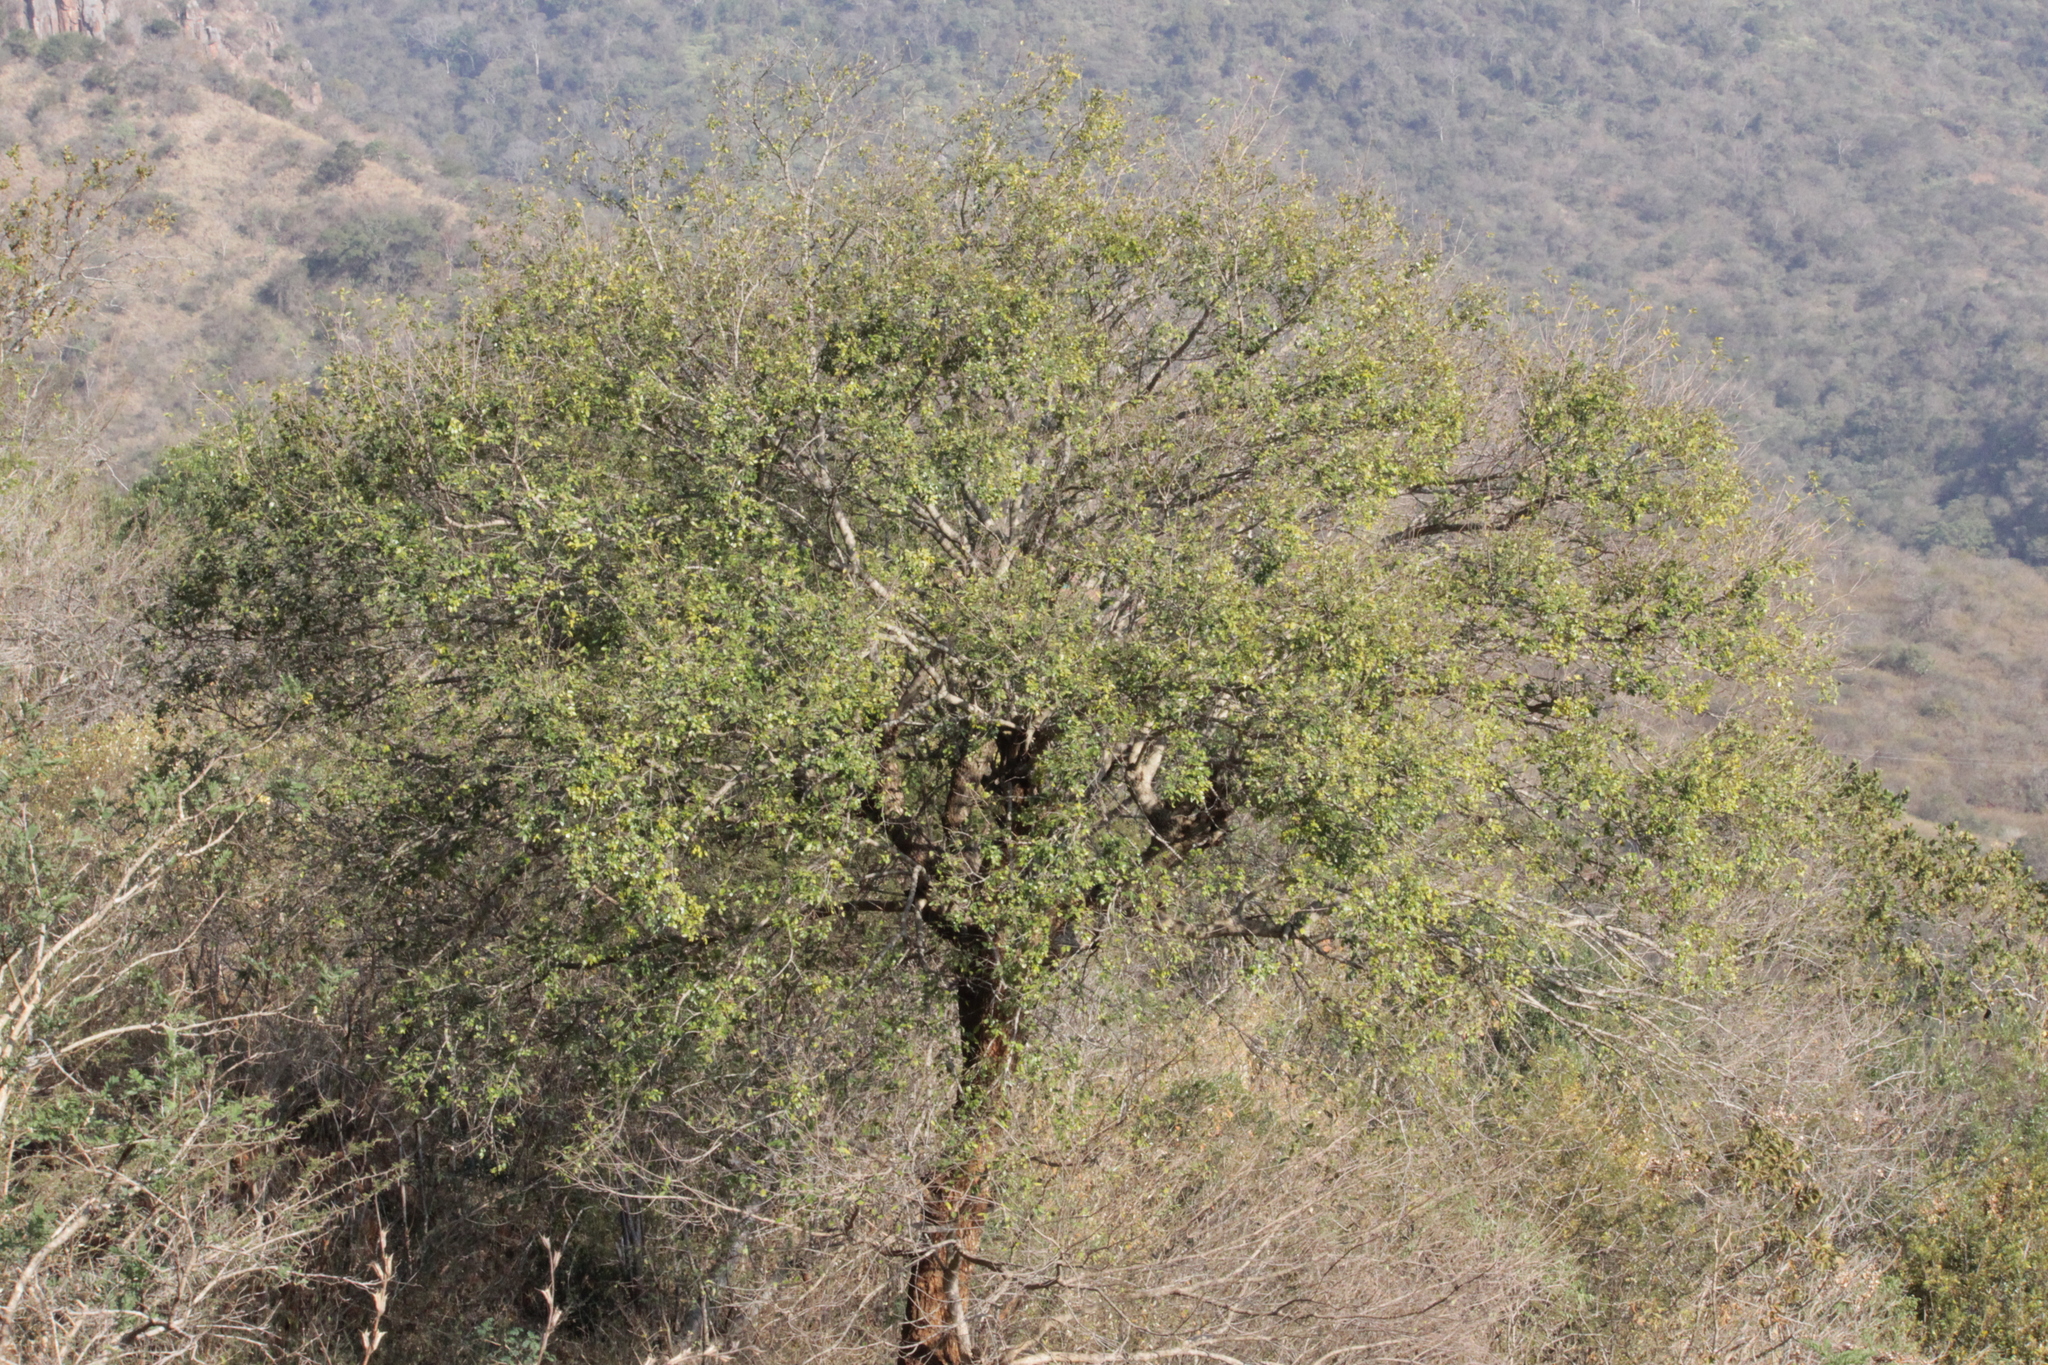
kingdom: Plantae
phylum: Tracheophyta
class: Magnoliopsida
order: Rosales
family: Rhamnaceae
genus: Phyllogeiton
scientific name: Phyllogeiton zeyheri
